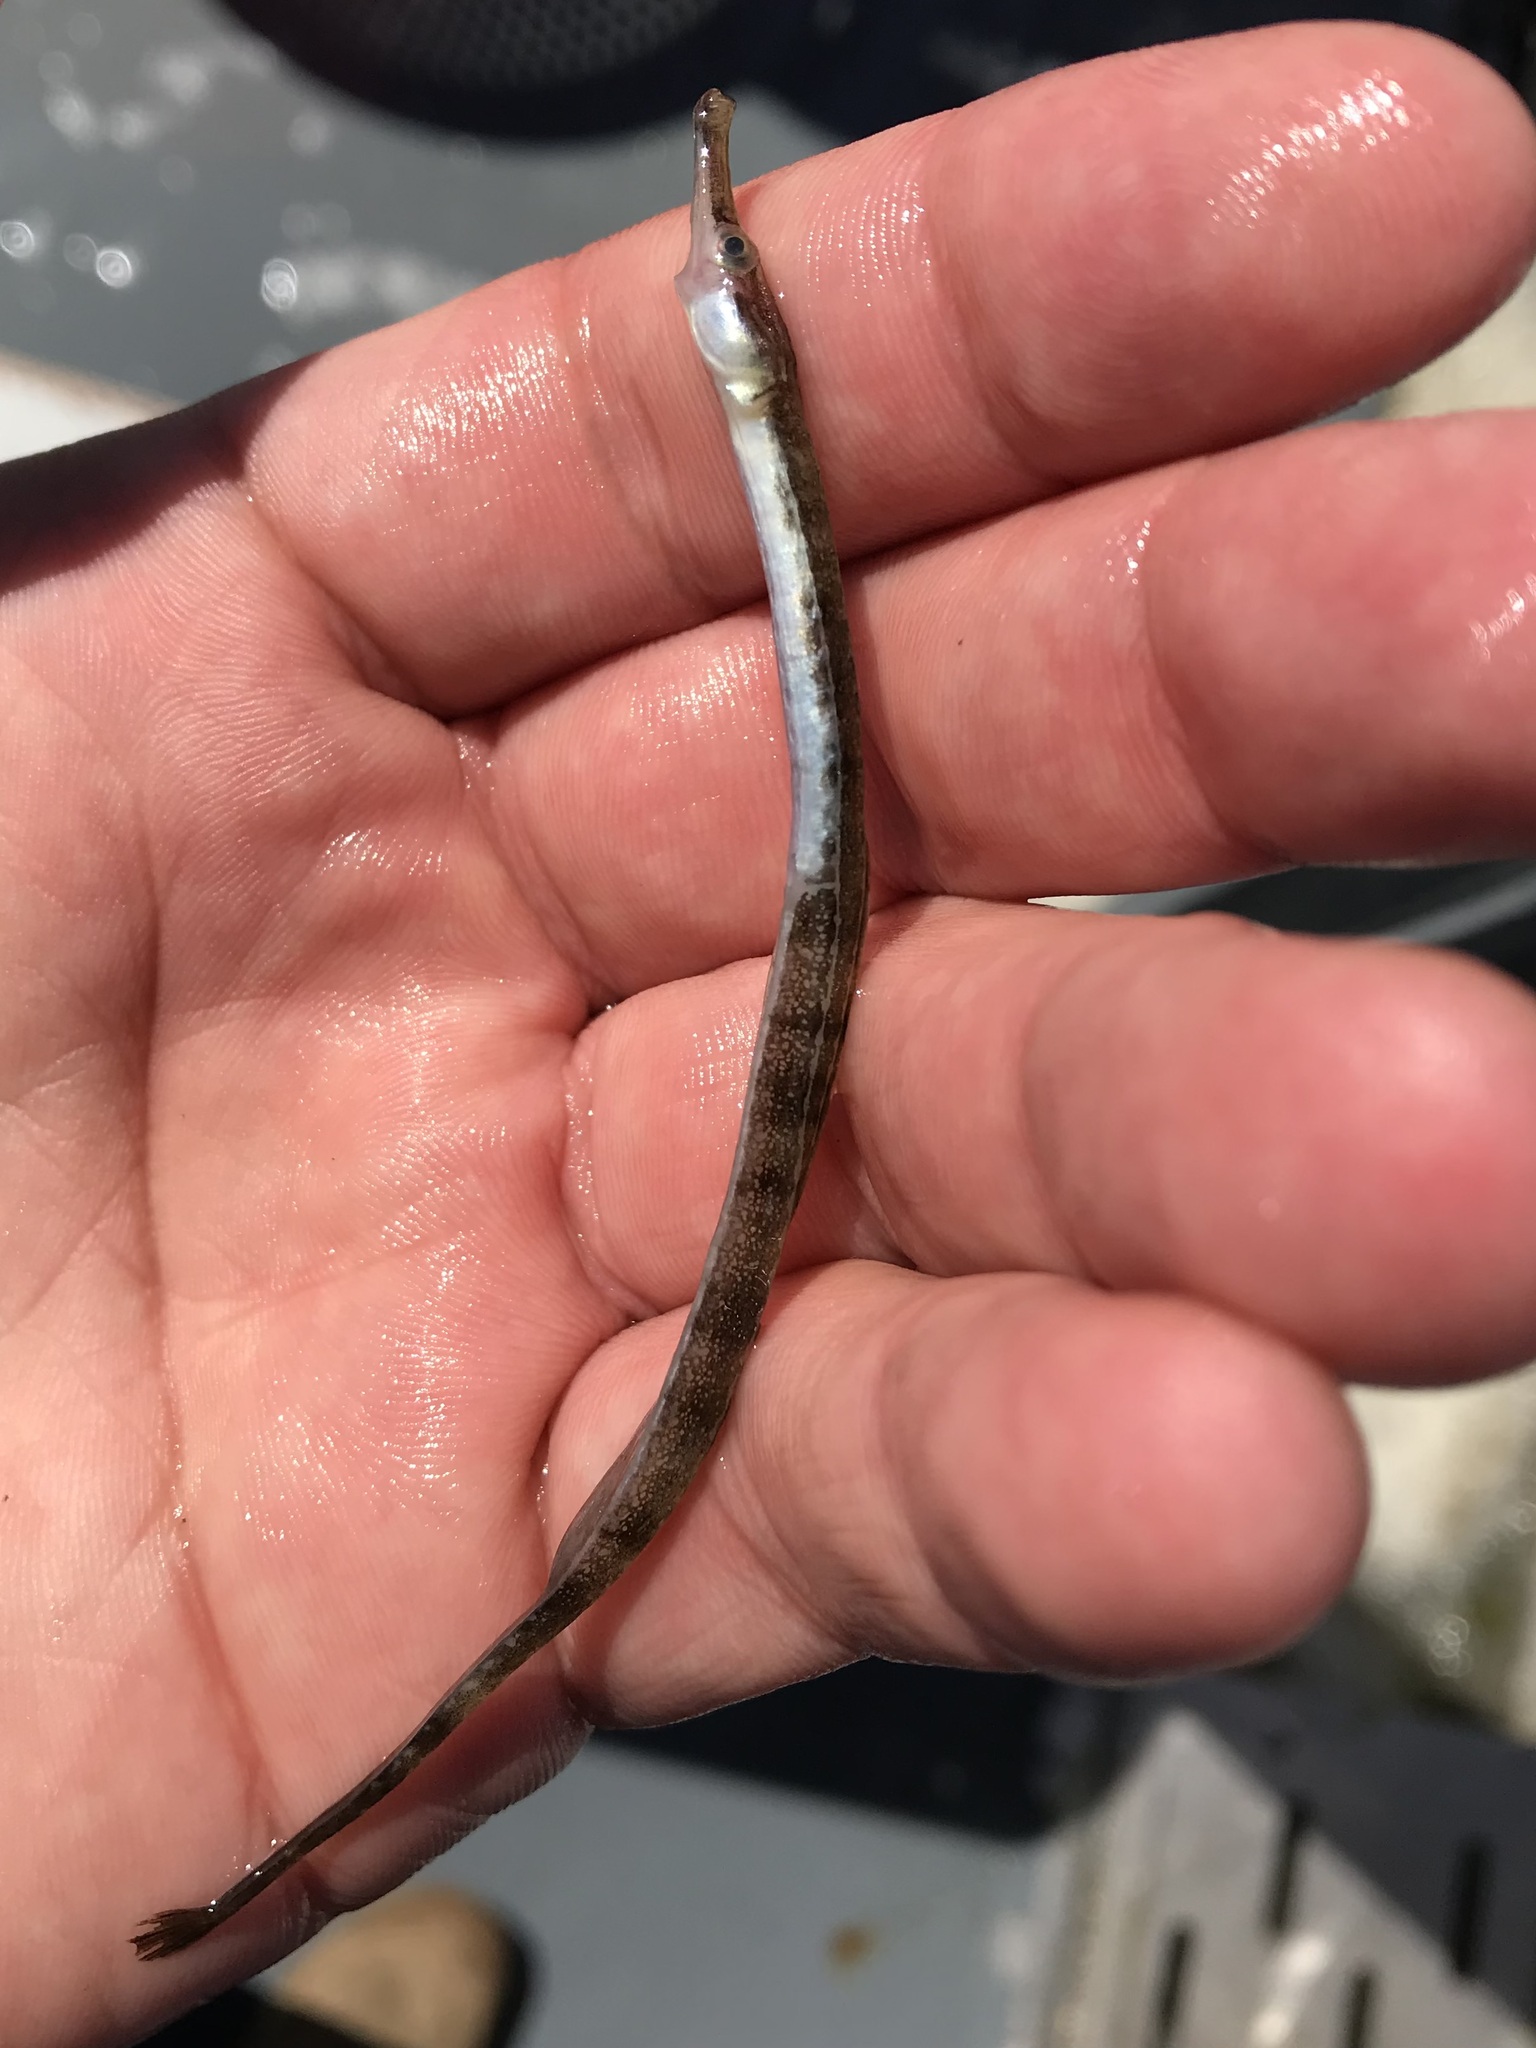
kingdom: Animalia
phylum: Chordata
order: Syngnathiformes
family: Syngnathidae
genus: Syngnathus
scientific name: Syngnathus rostellatus
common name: Nilsson's pipefish
